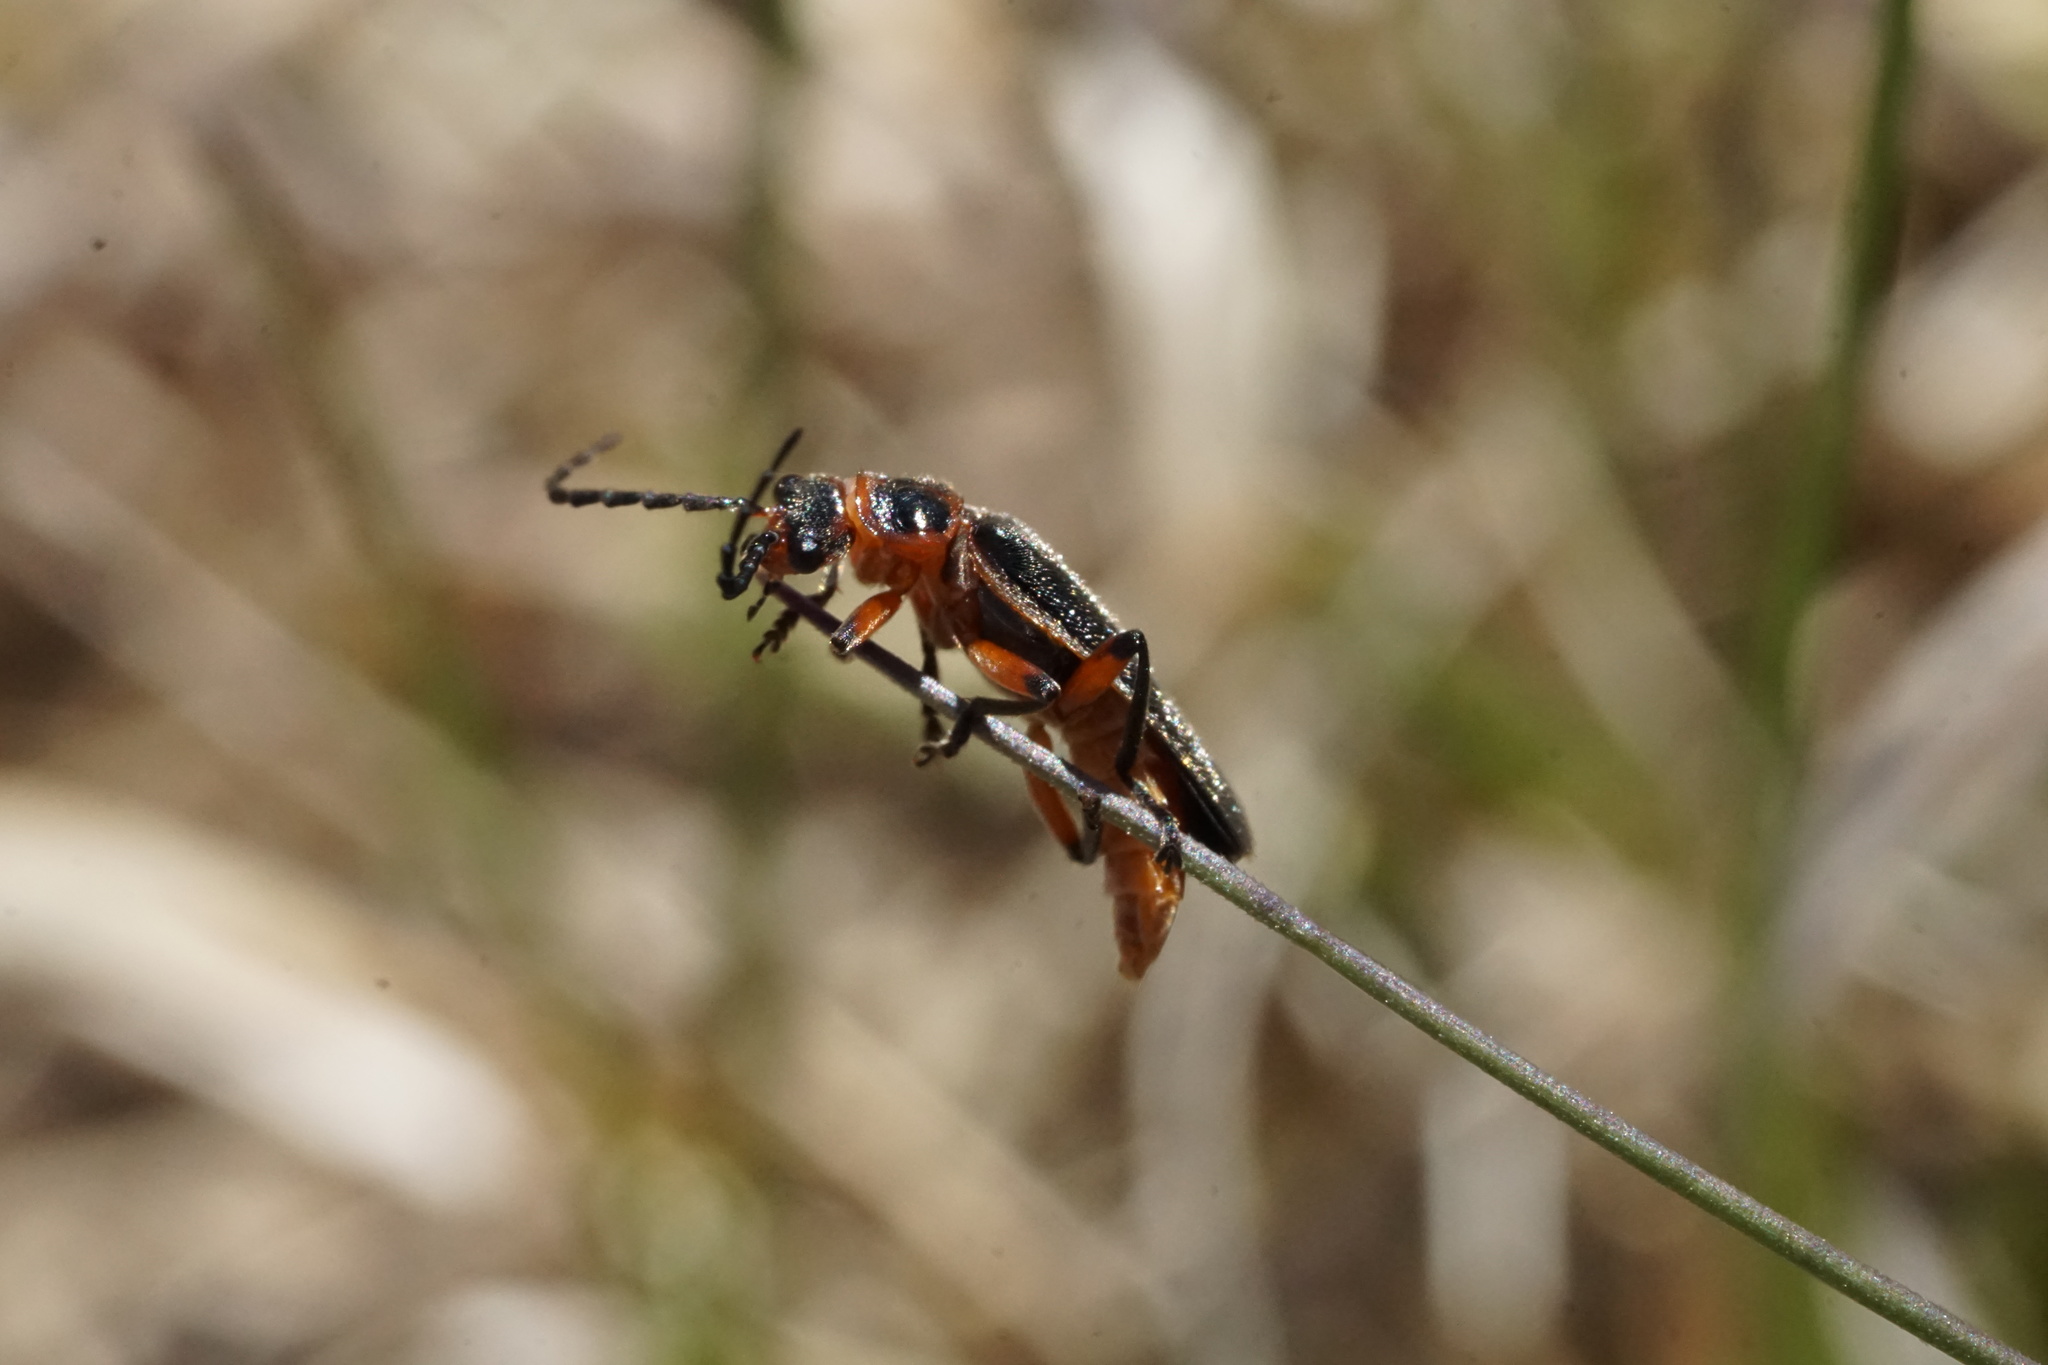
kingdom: Animalia
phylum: Arthropoda
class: Insecta
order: Coleoptera
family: Cantharidae
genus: Atalantycha
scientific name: Atalantycha bilineata
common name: Two-lined leatherwing
